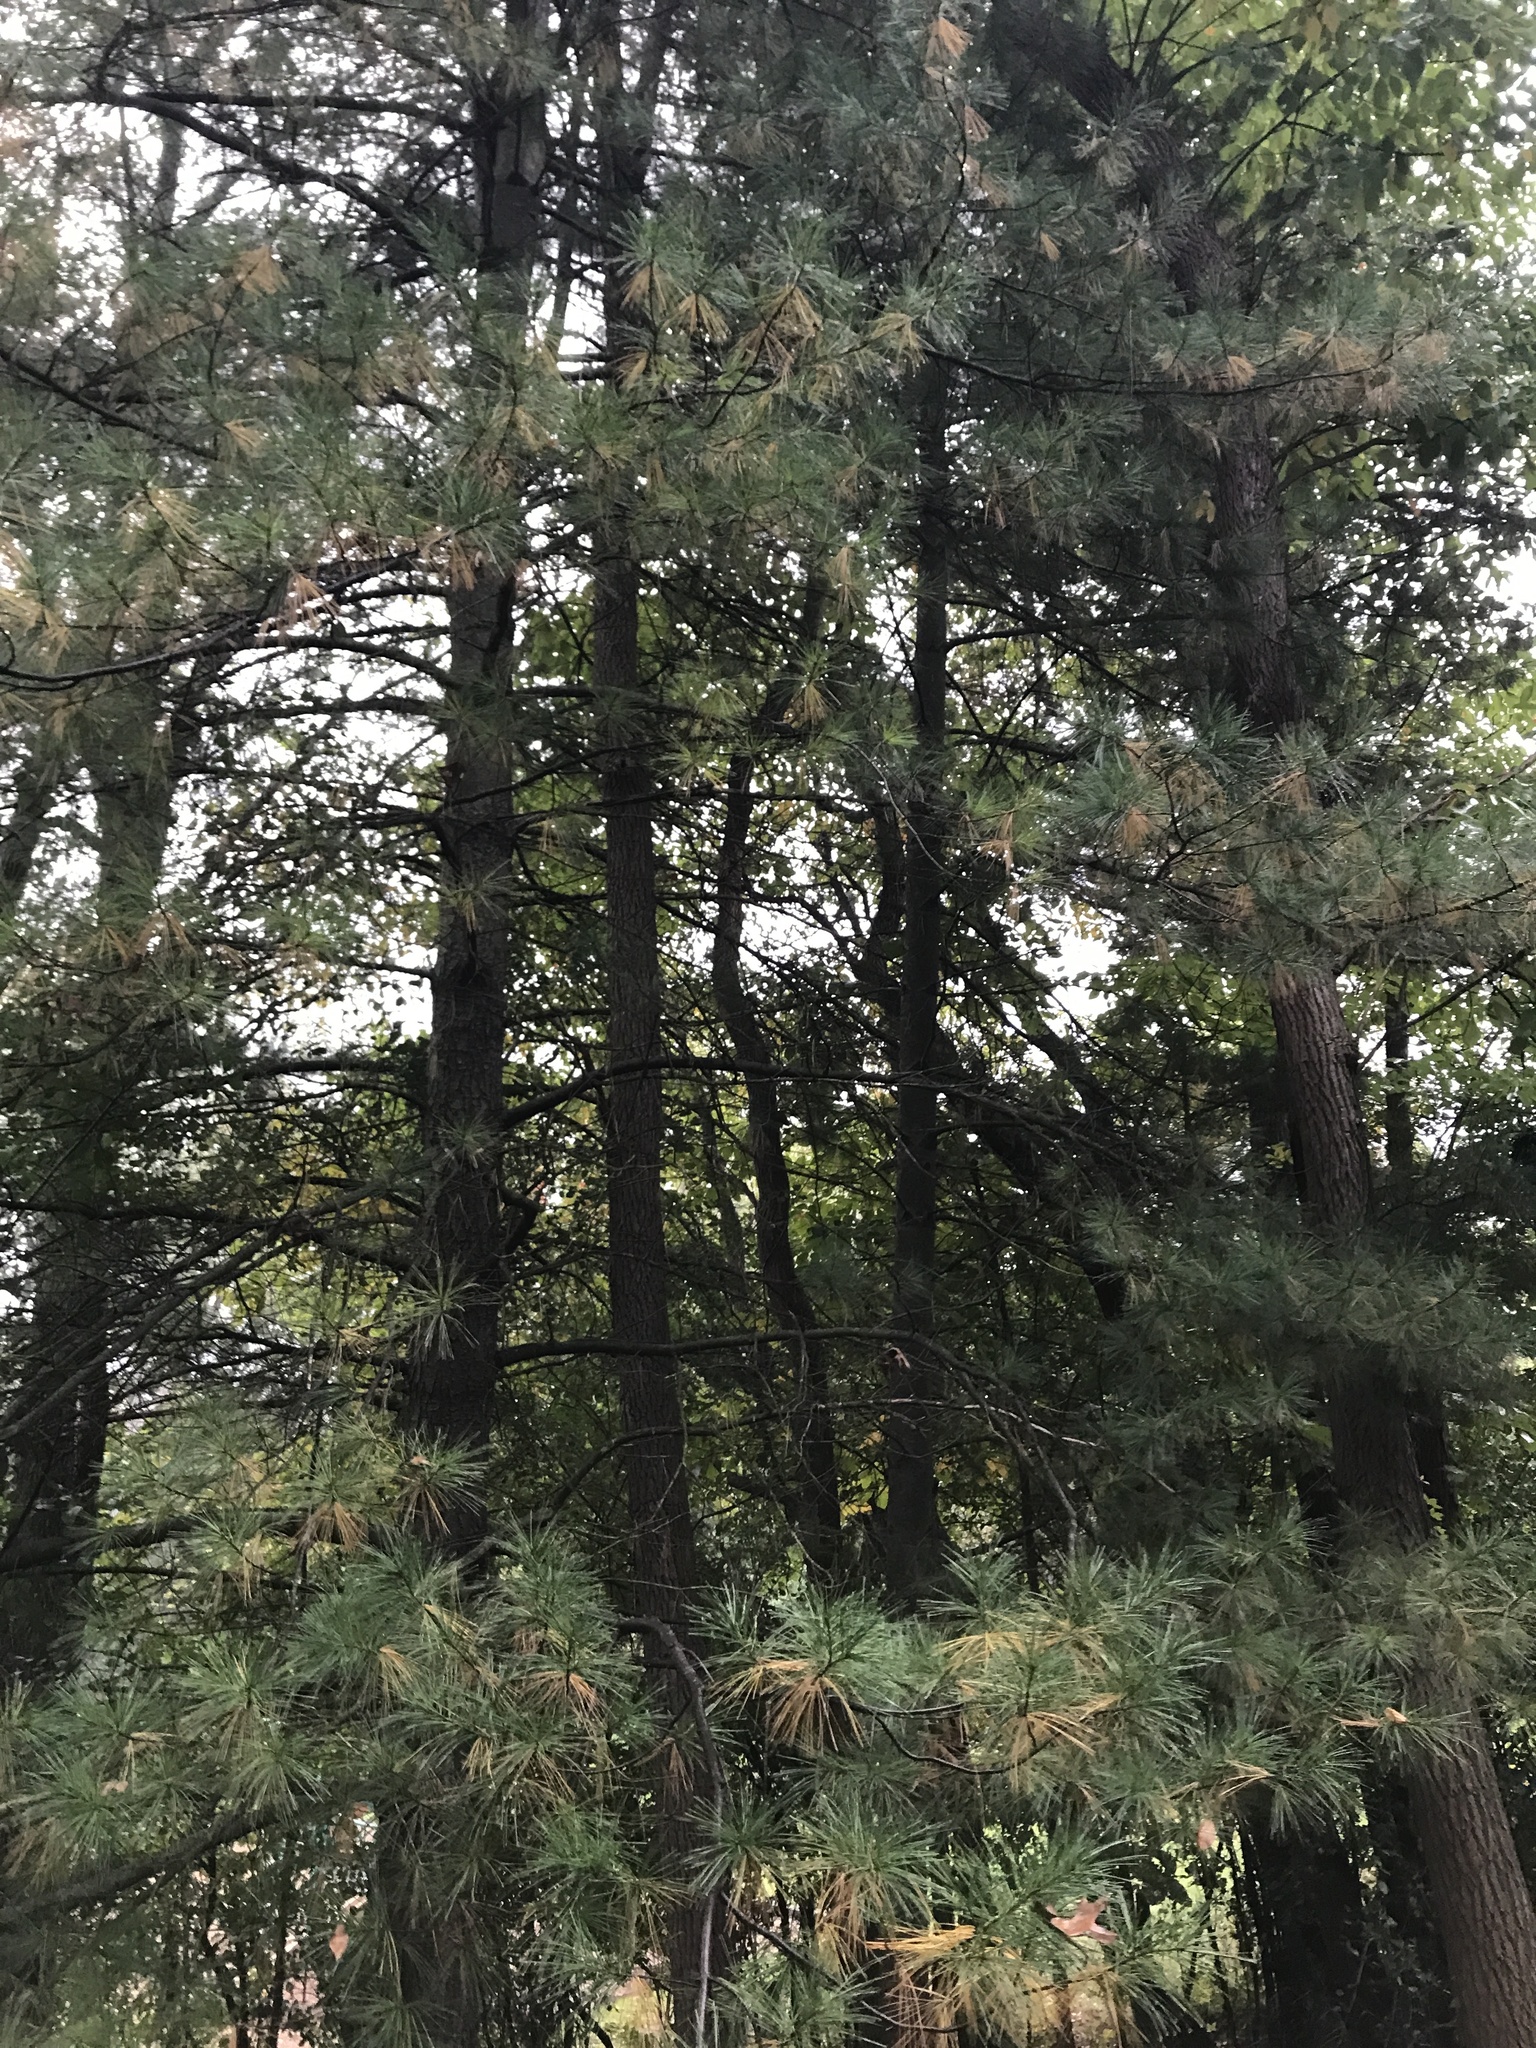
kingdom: Plantae
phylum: Tracheophyta
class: Pinopsida
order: Pinales
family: Pinaceae
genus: Pinus
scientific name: Pinus strobus
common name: Weymouth pine
